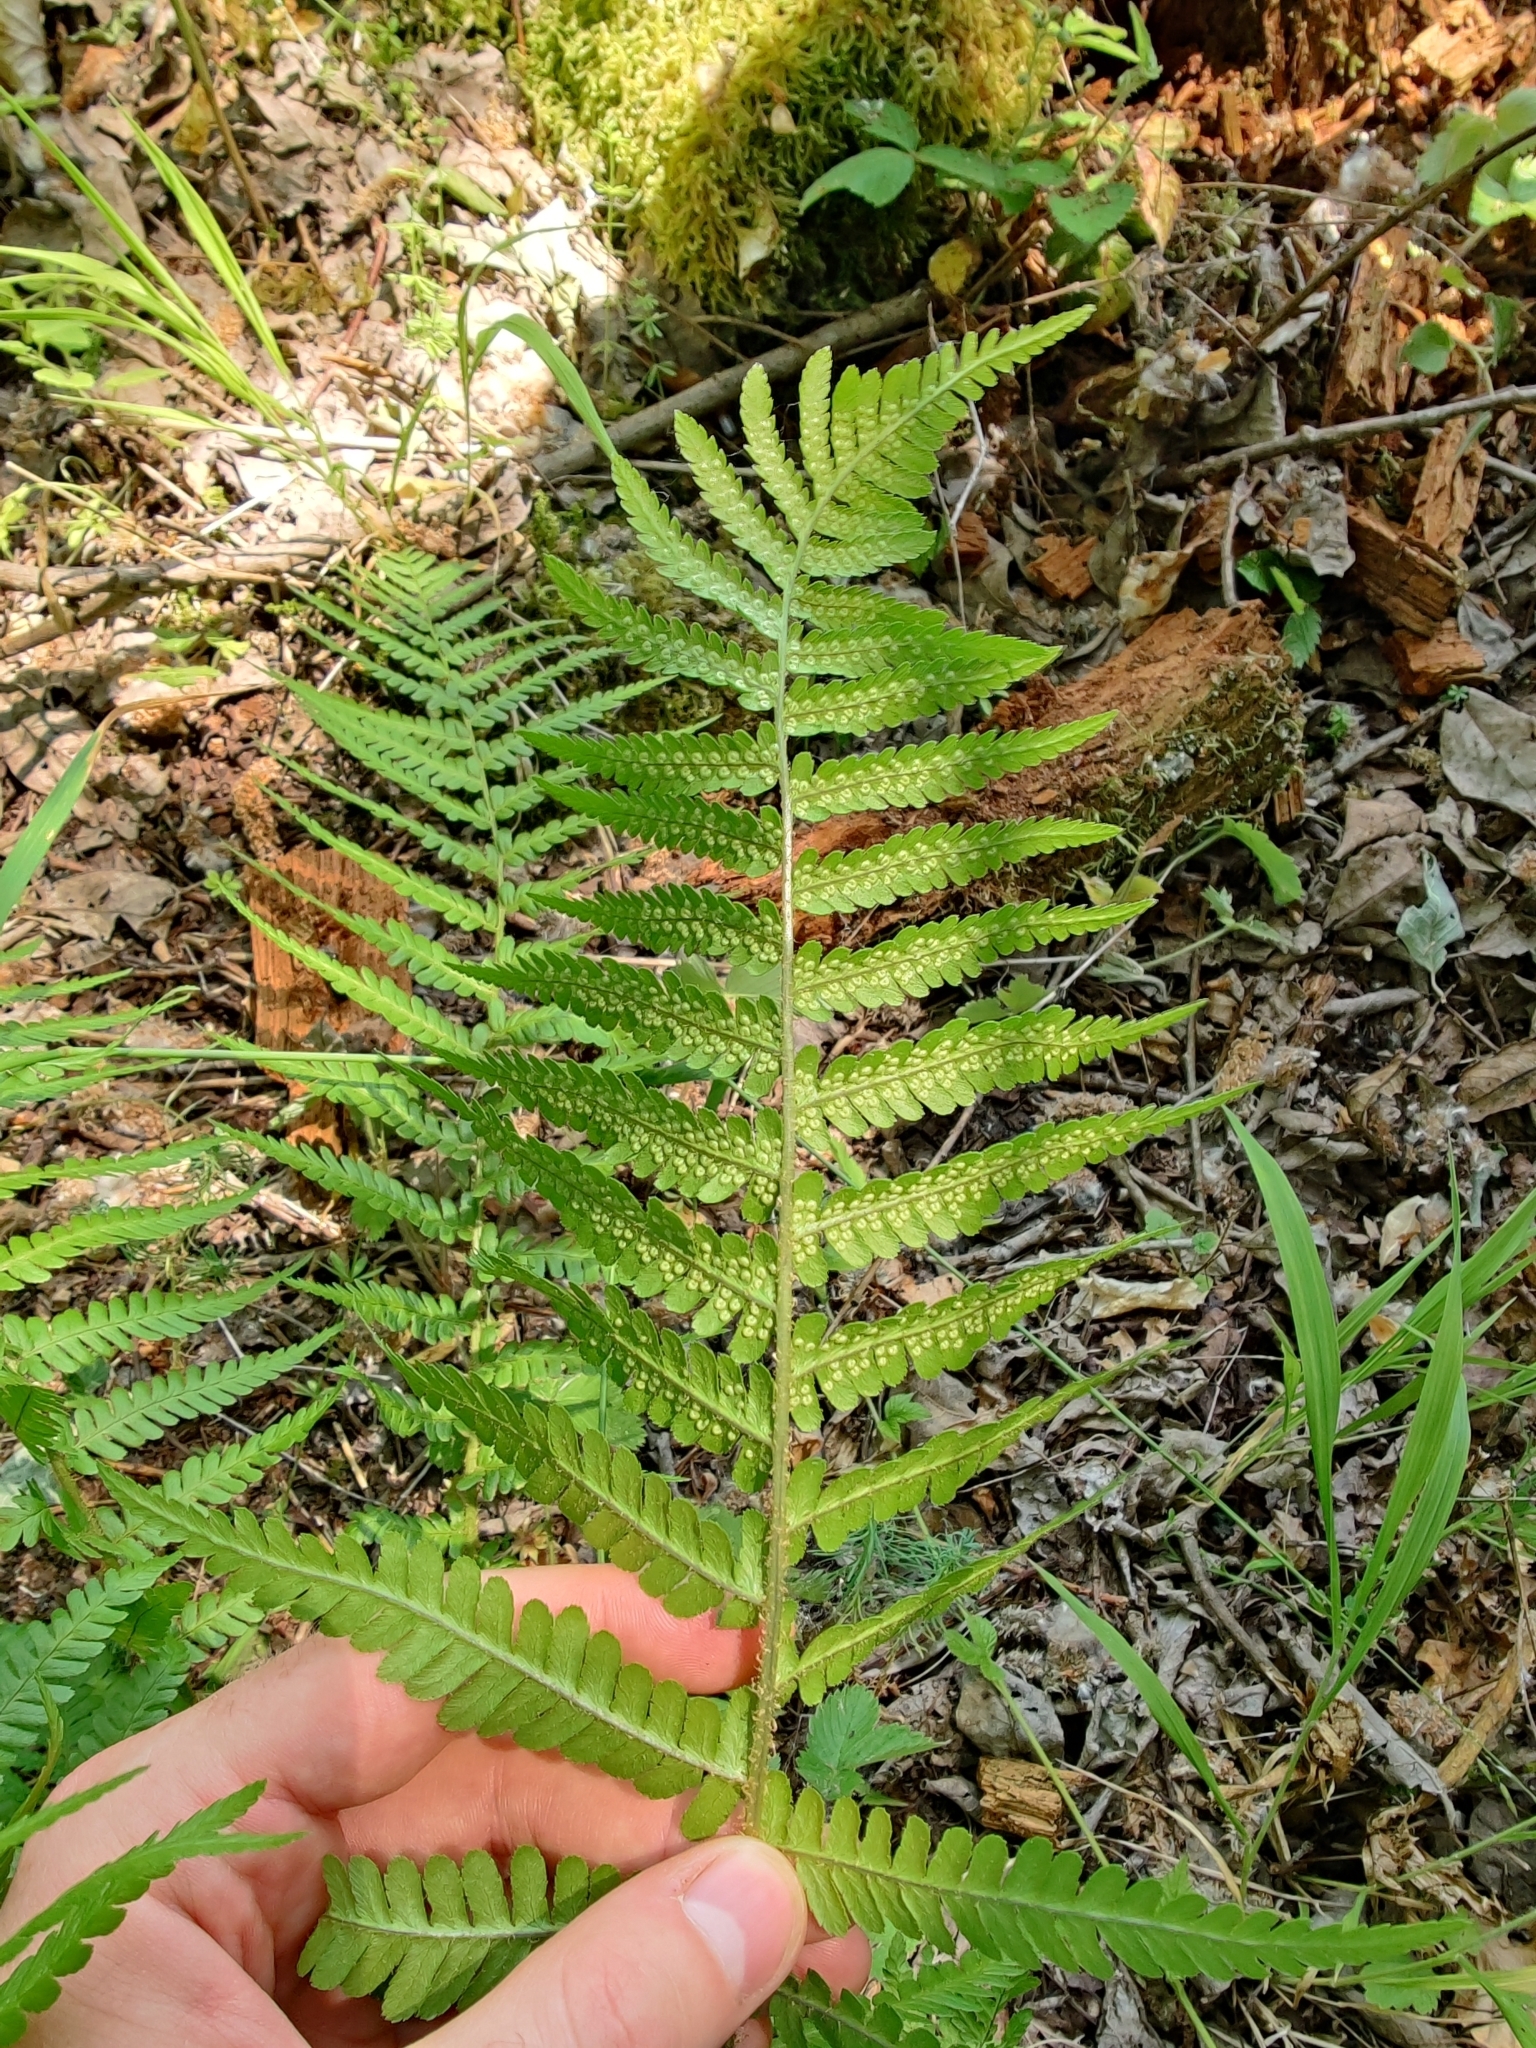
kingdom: Plantae
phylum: Tracheophyta
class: Polypodiopsida
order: Polypodiales
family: Dryopteridaceae
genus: Dryopteris
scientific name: Dryopteris filix-mas
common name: Male fern
